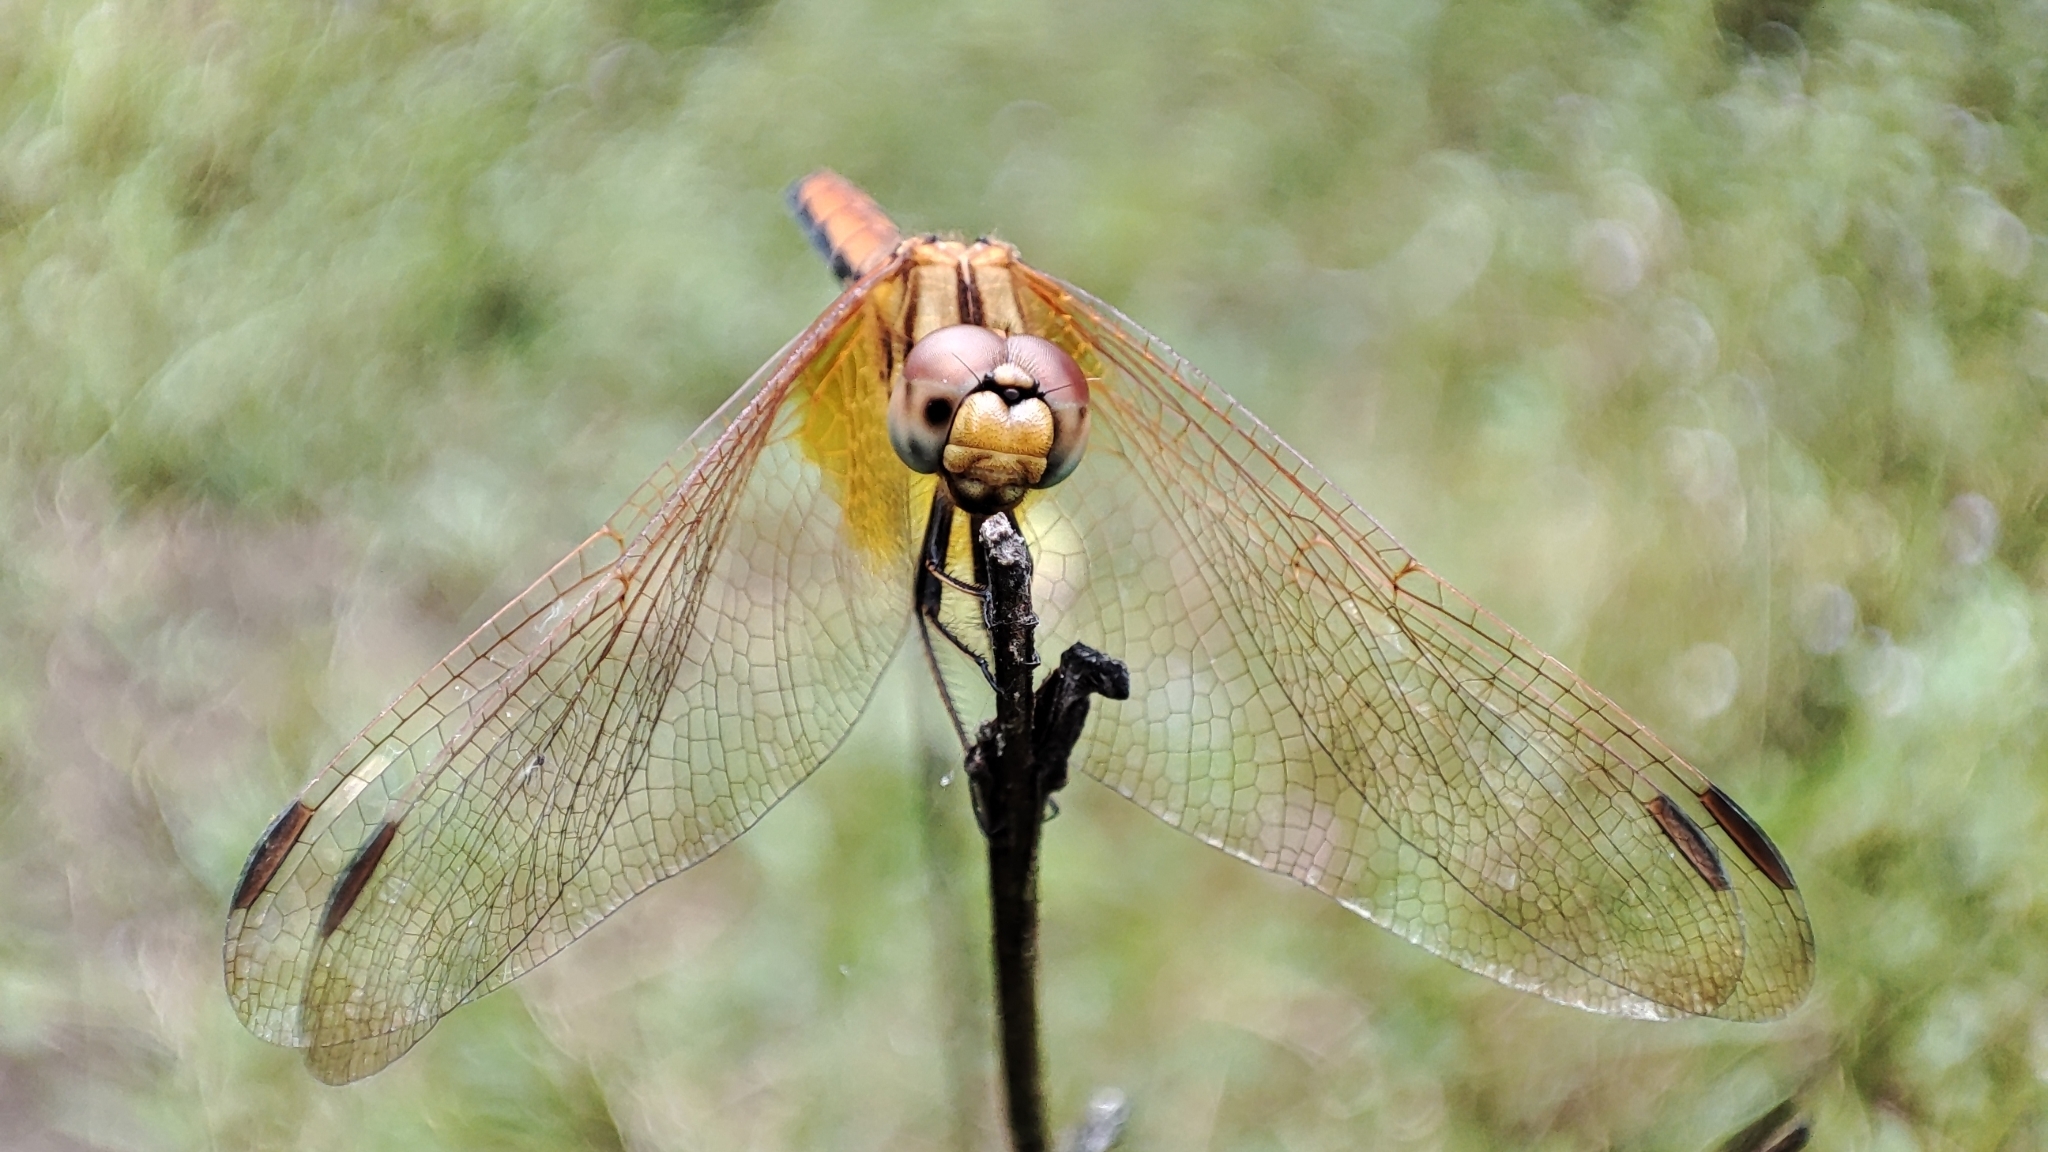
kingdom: Animalia
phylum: Arthropoda
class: Insecta
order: Odonata
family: Libellulidae
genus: Trithemis
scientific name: Trithemis aurora
